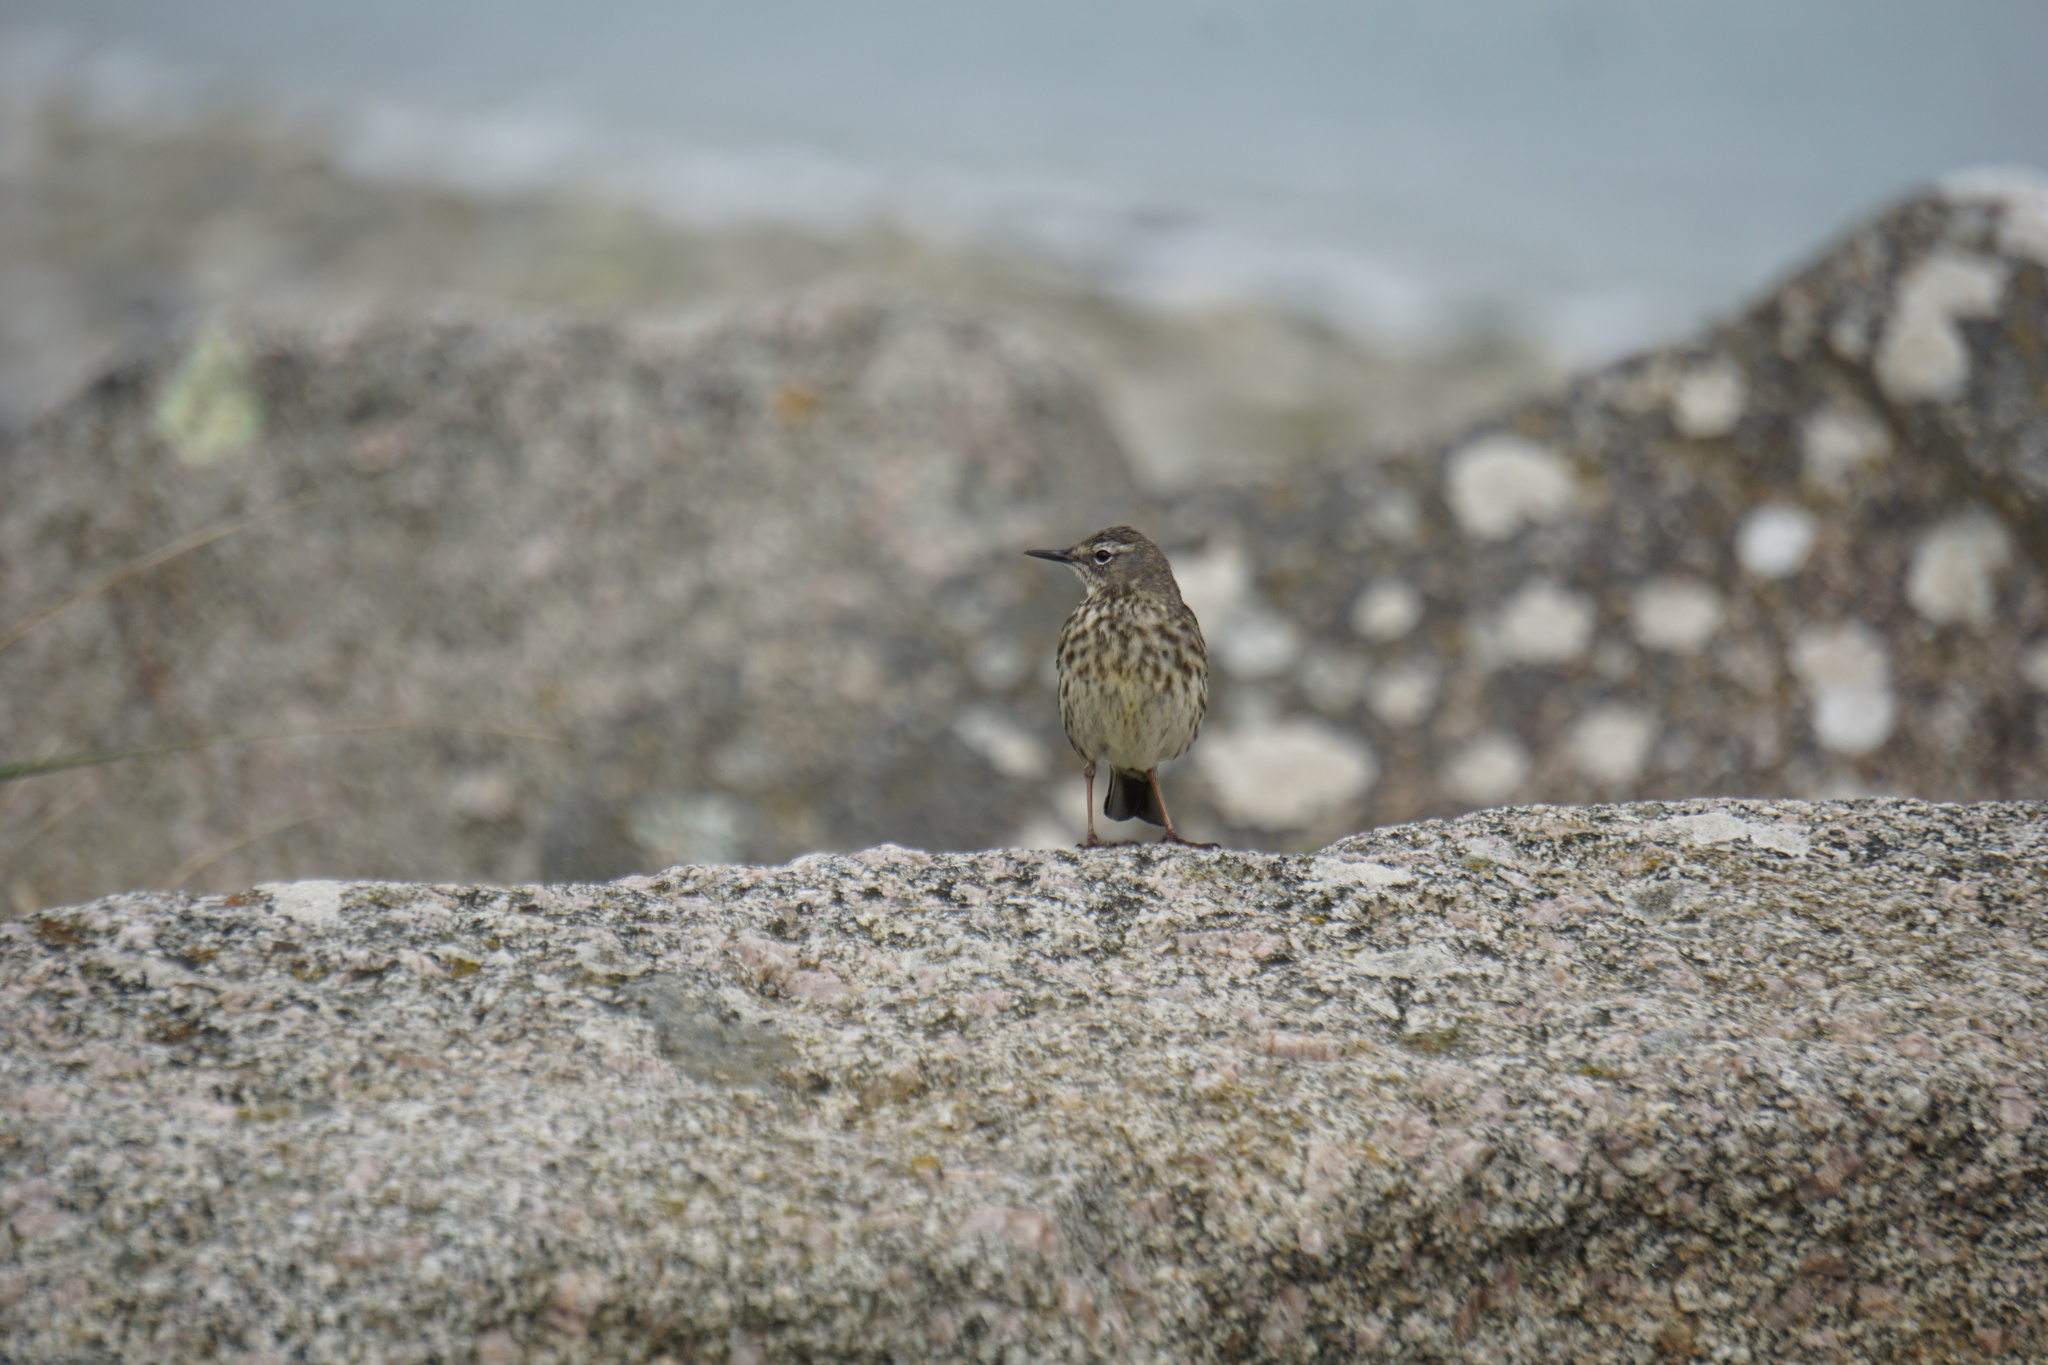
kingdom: Animalia
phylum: Chordata
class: Aves
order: Passeriformes
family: Motacillidae
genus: Anthus
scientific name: Anthus petrosus
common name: Eurasian rock pipit
